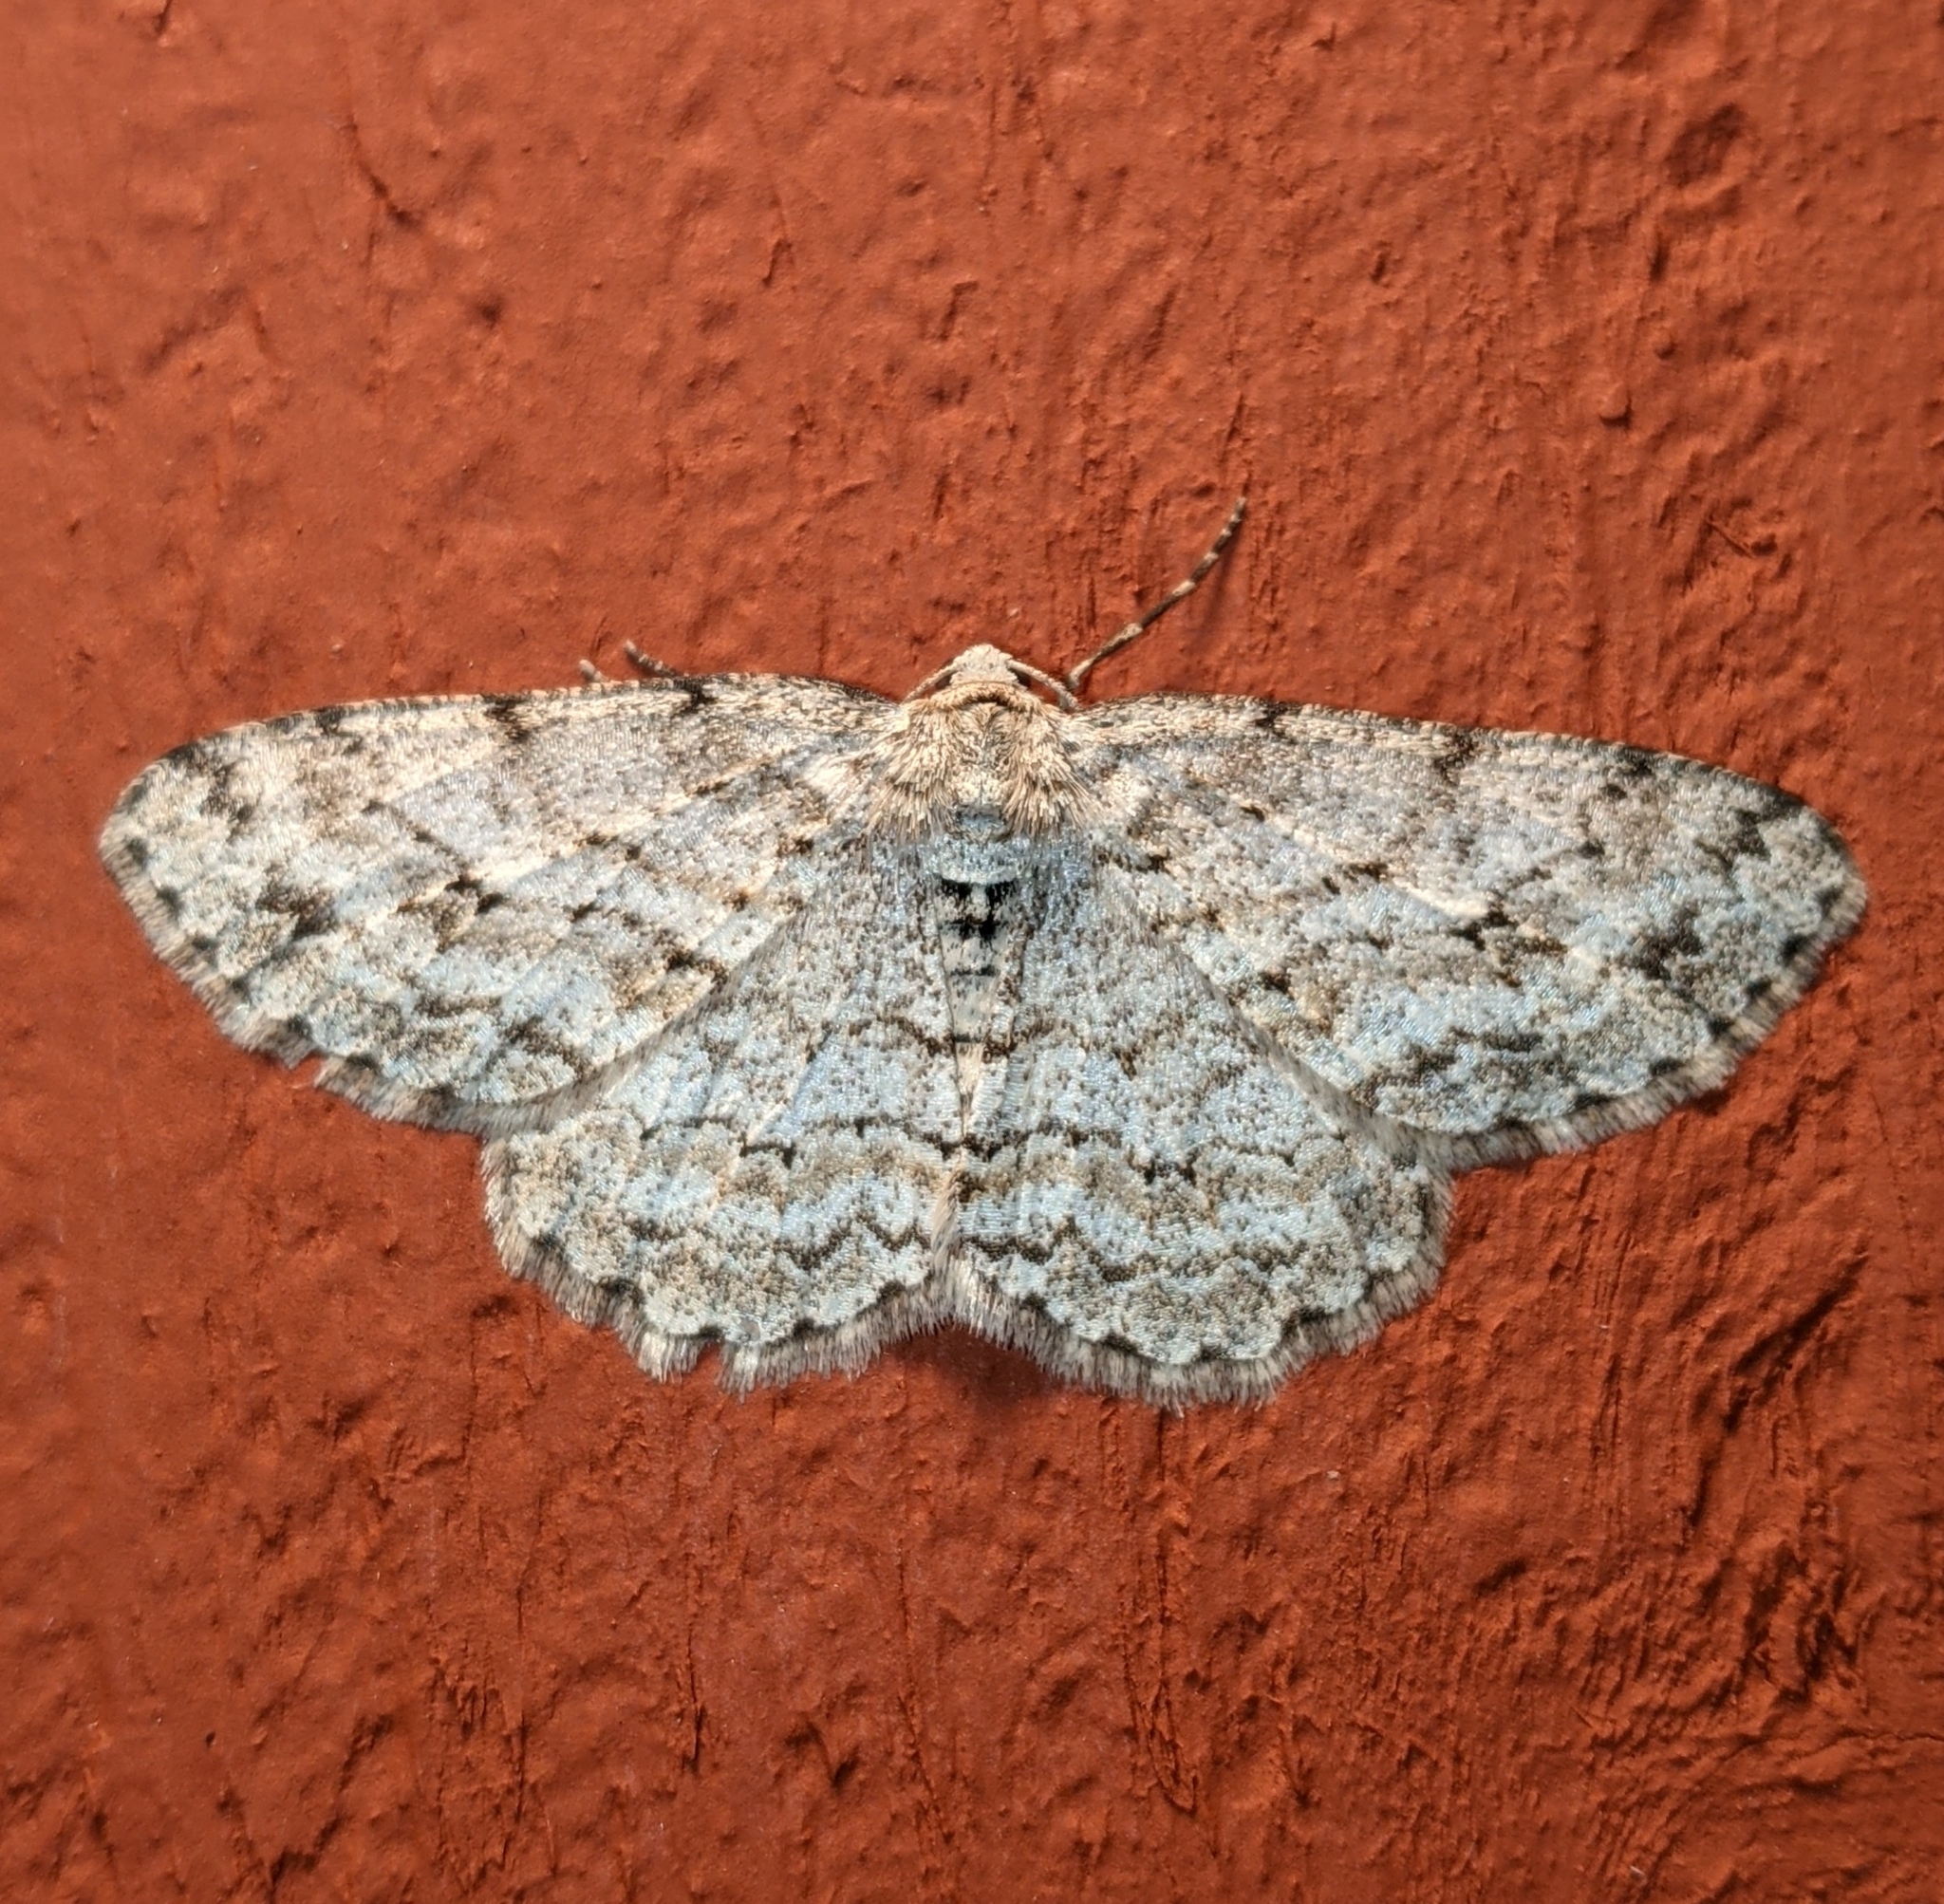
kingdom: Animalia
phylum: Arthropoda
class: Insecta
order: Lepidoptera
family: Geometridae
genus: Ectropis
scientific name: Ectropis crepuscularia
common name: Engrailed
